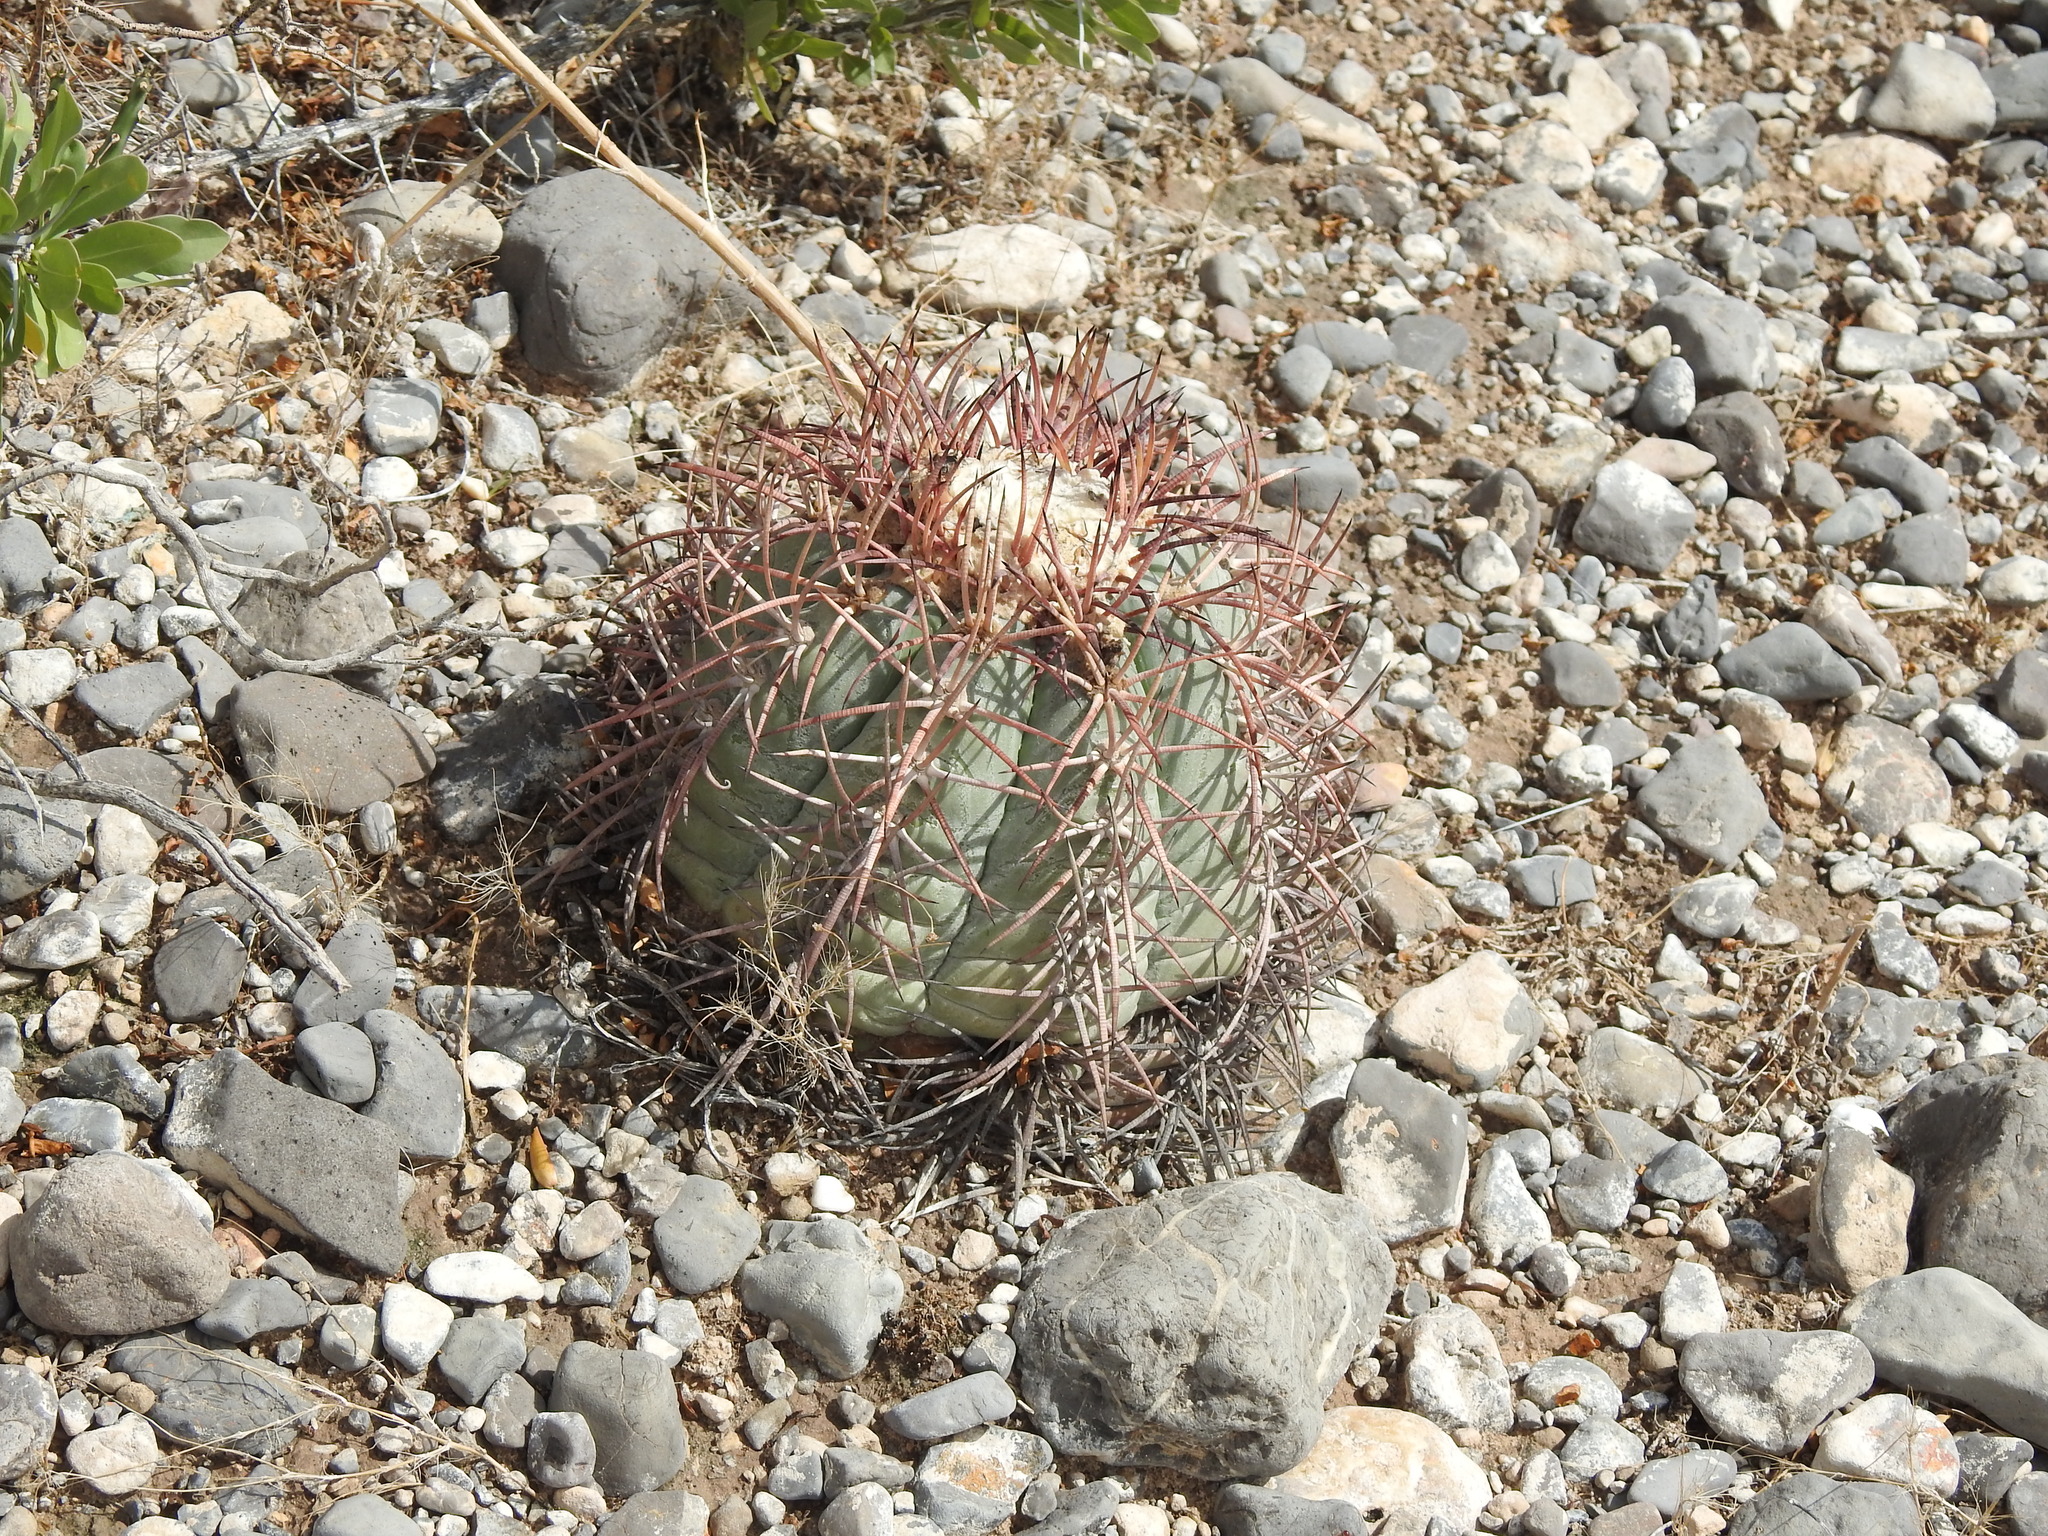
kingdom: Plantae
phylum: Tracheophyta
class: Magnoliopsida
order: Caryophyllales
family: Cactaceae
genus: Echinocactus
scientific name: Echinocactus horizonthalonius
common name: Devilshead
